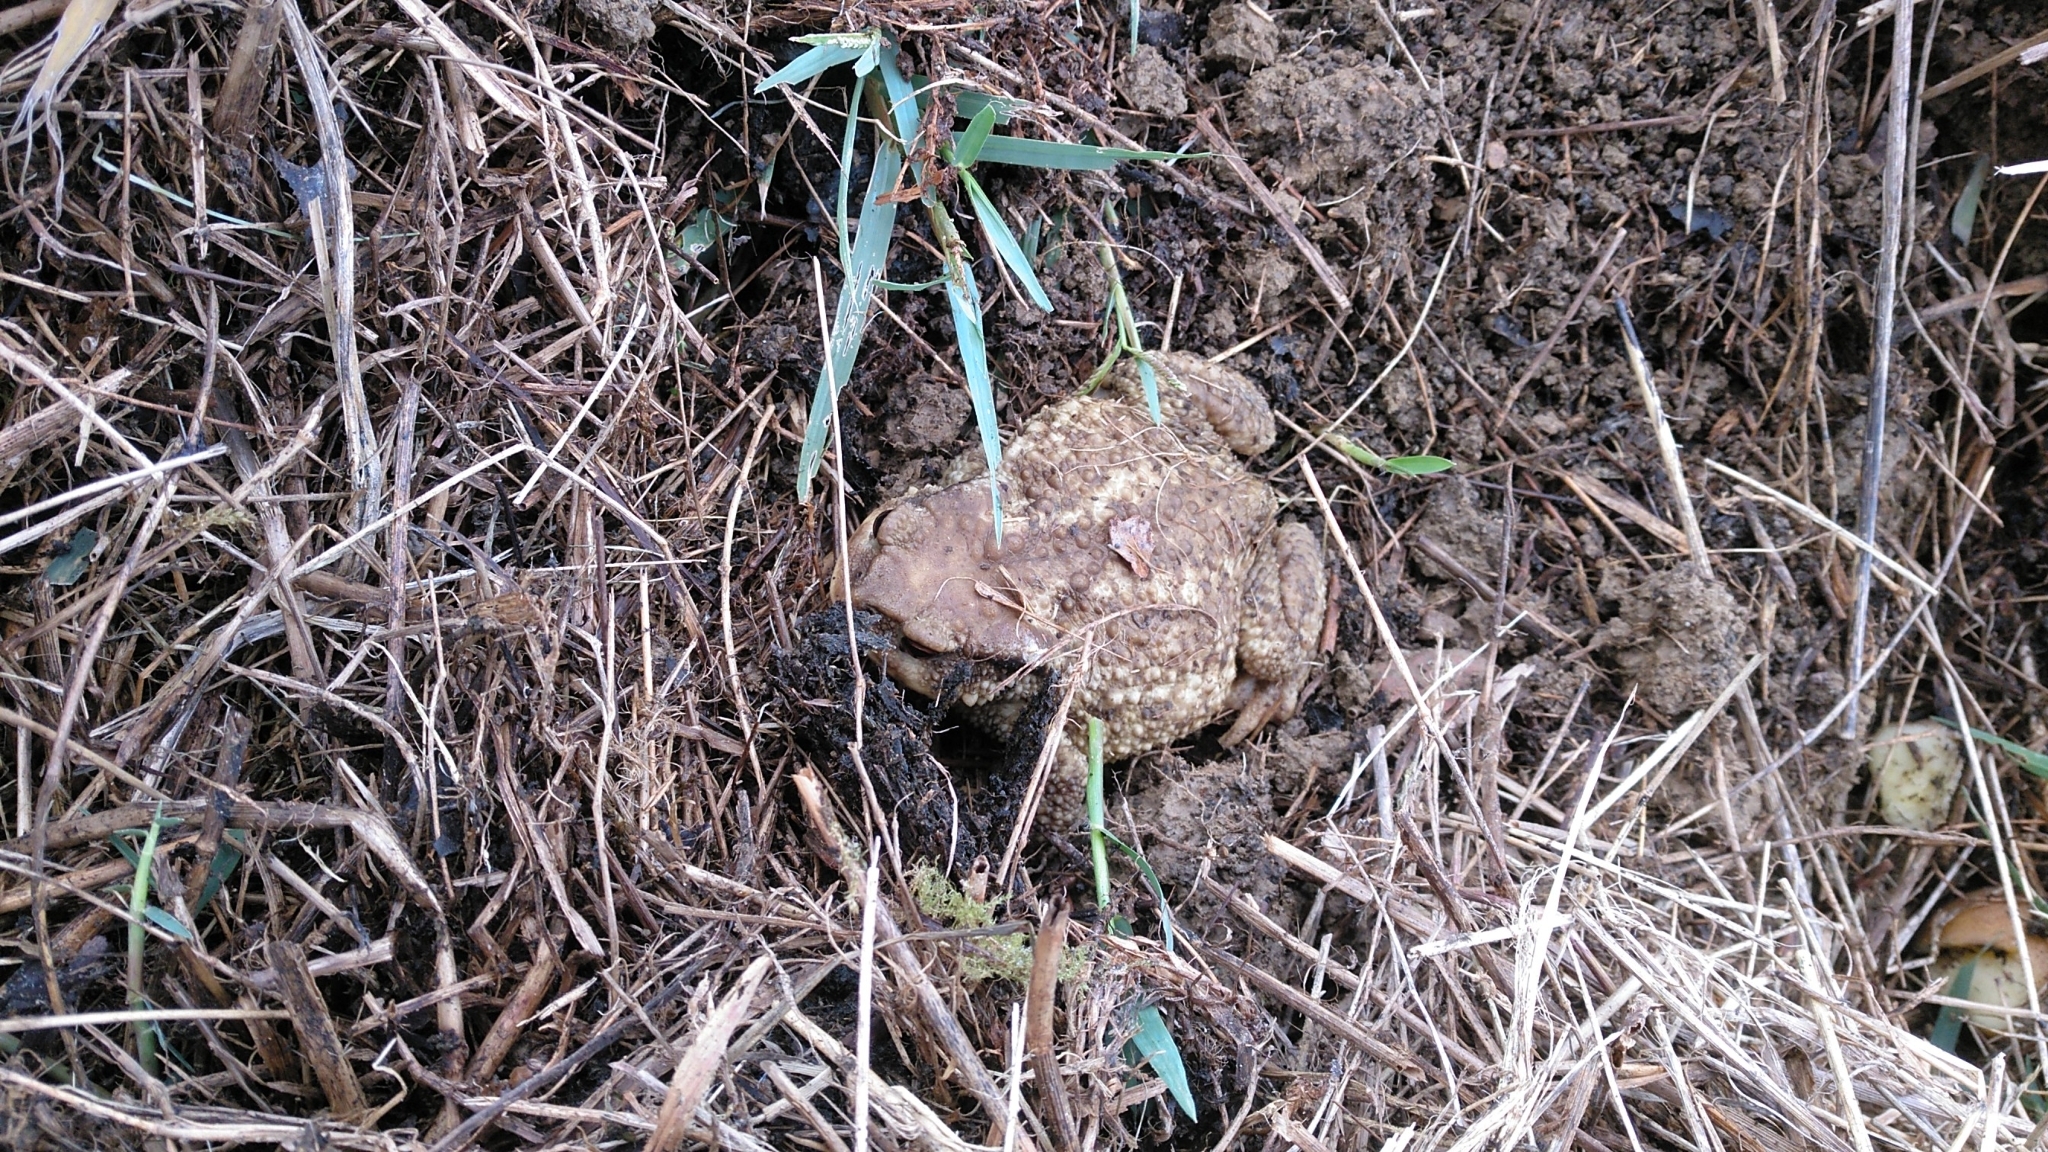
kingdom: Animalia
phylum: Chordata
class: Amphibia
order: Anura
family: Bufonidae
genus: Bufo
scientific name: Bufo spinosus
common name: Western common toad
